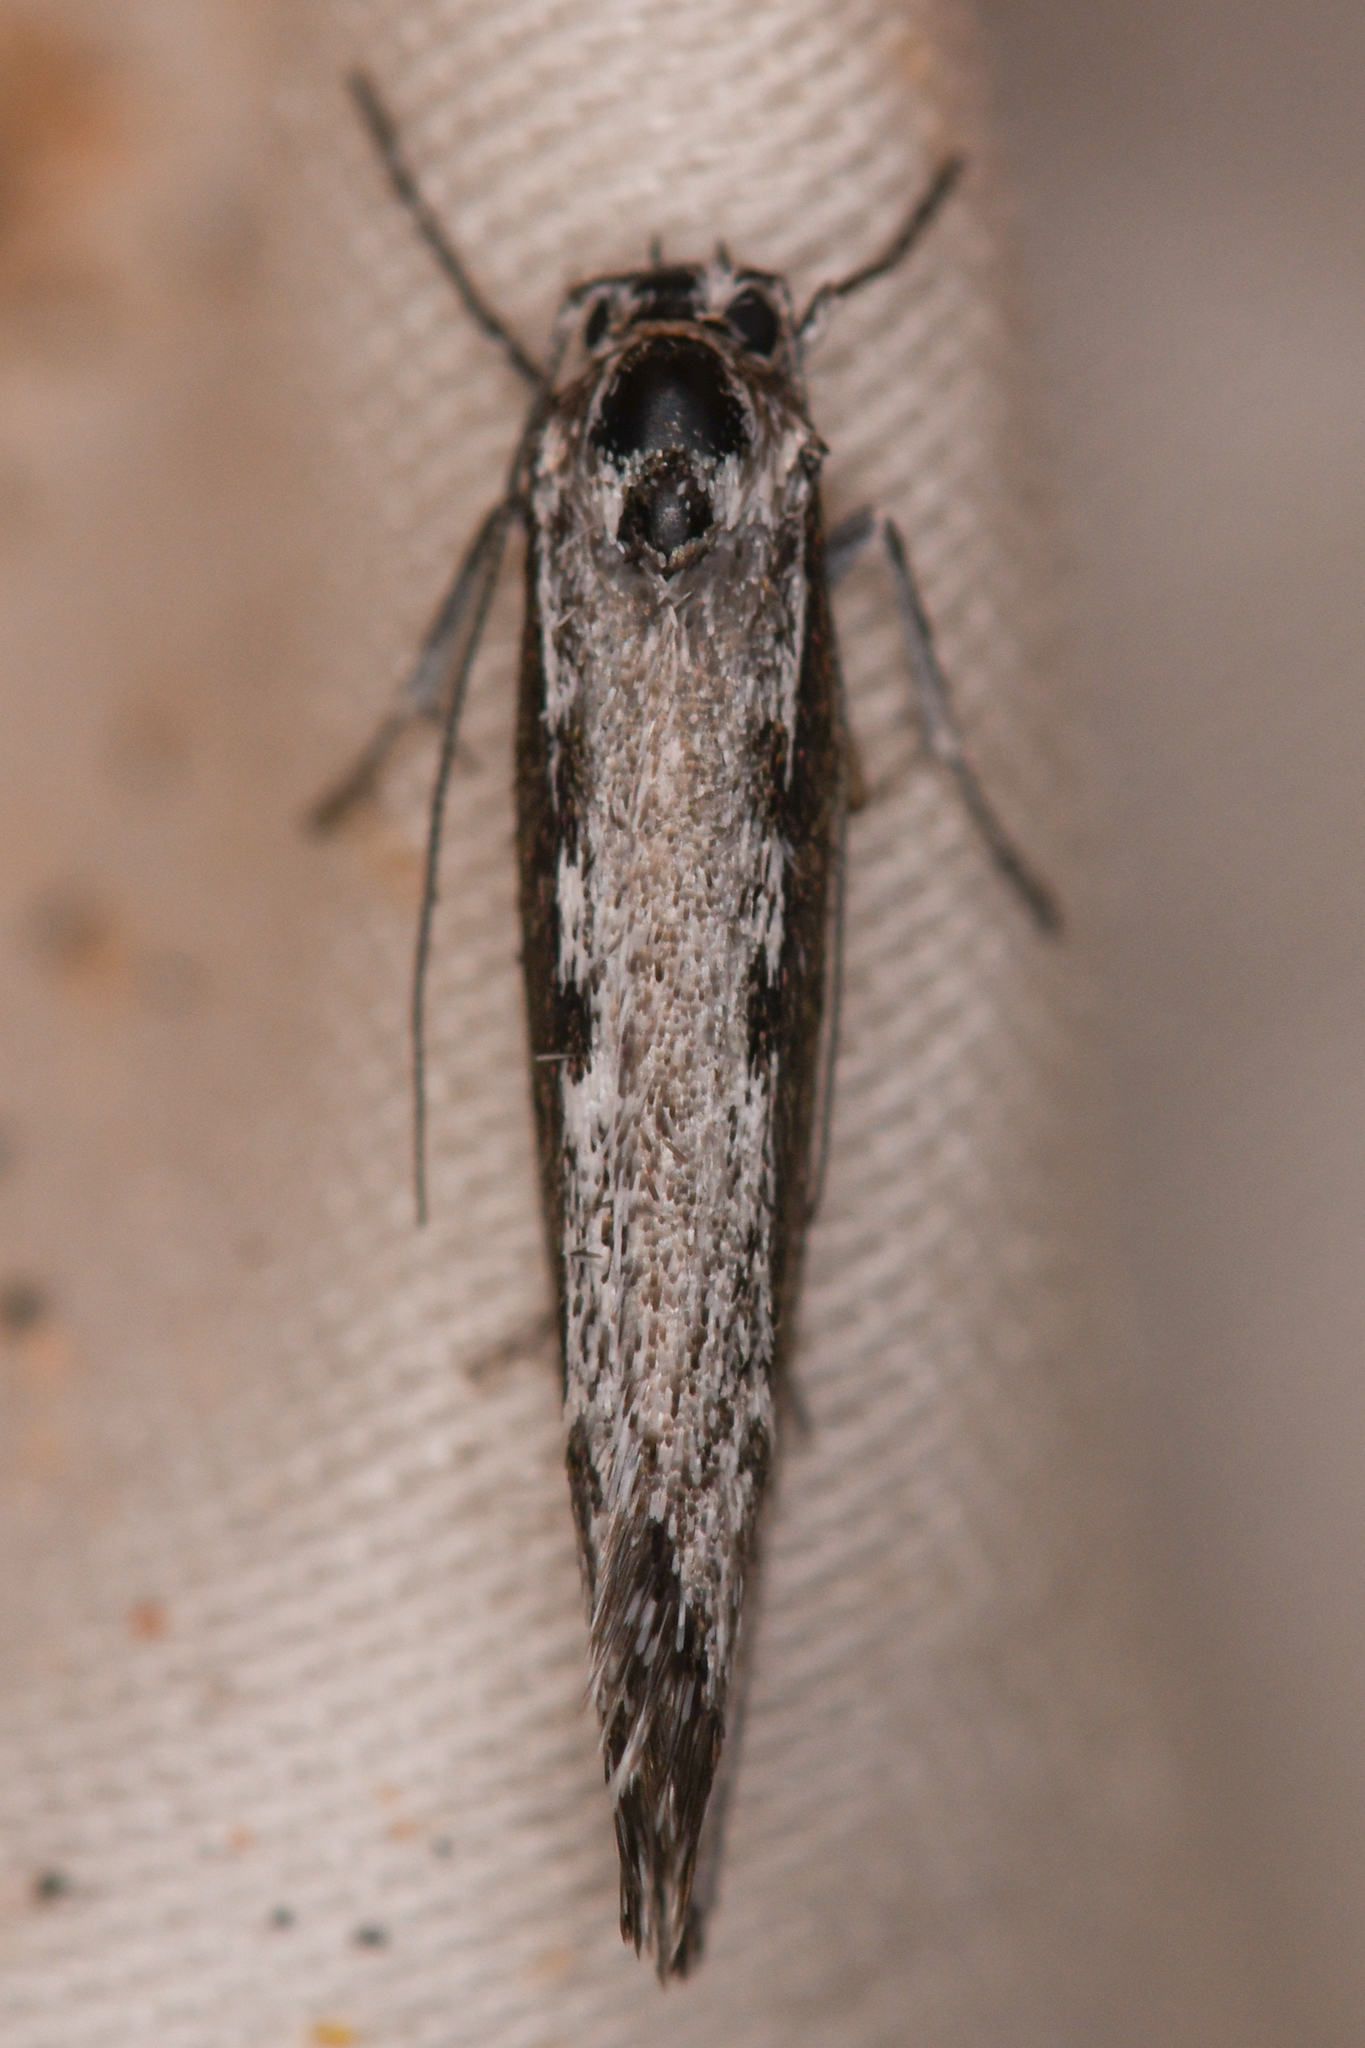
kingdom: Animalia
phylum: Arthropoda
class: Insecta
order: Lepidoptera
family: Ethmiidae
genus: Ethmia
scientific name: Ethmia epileuca
